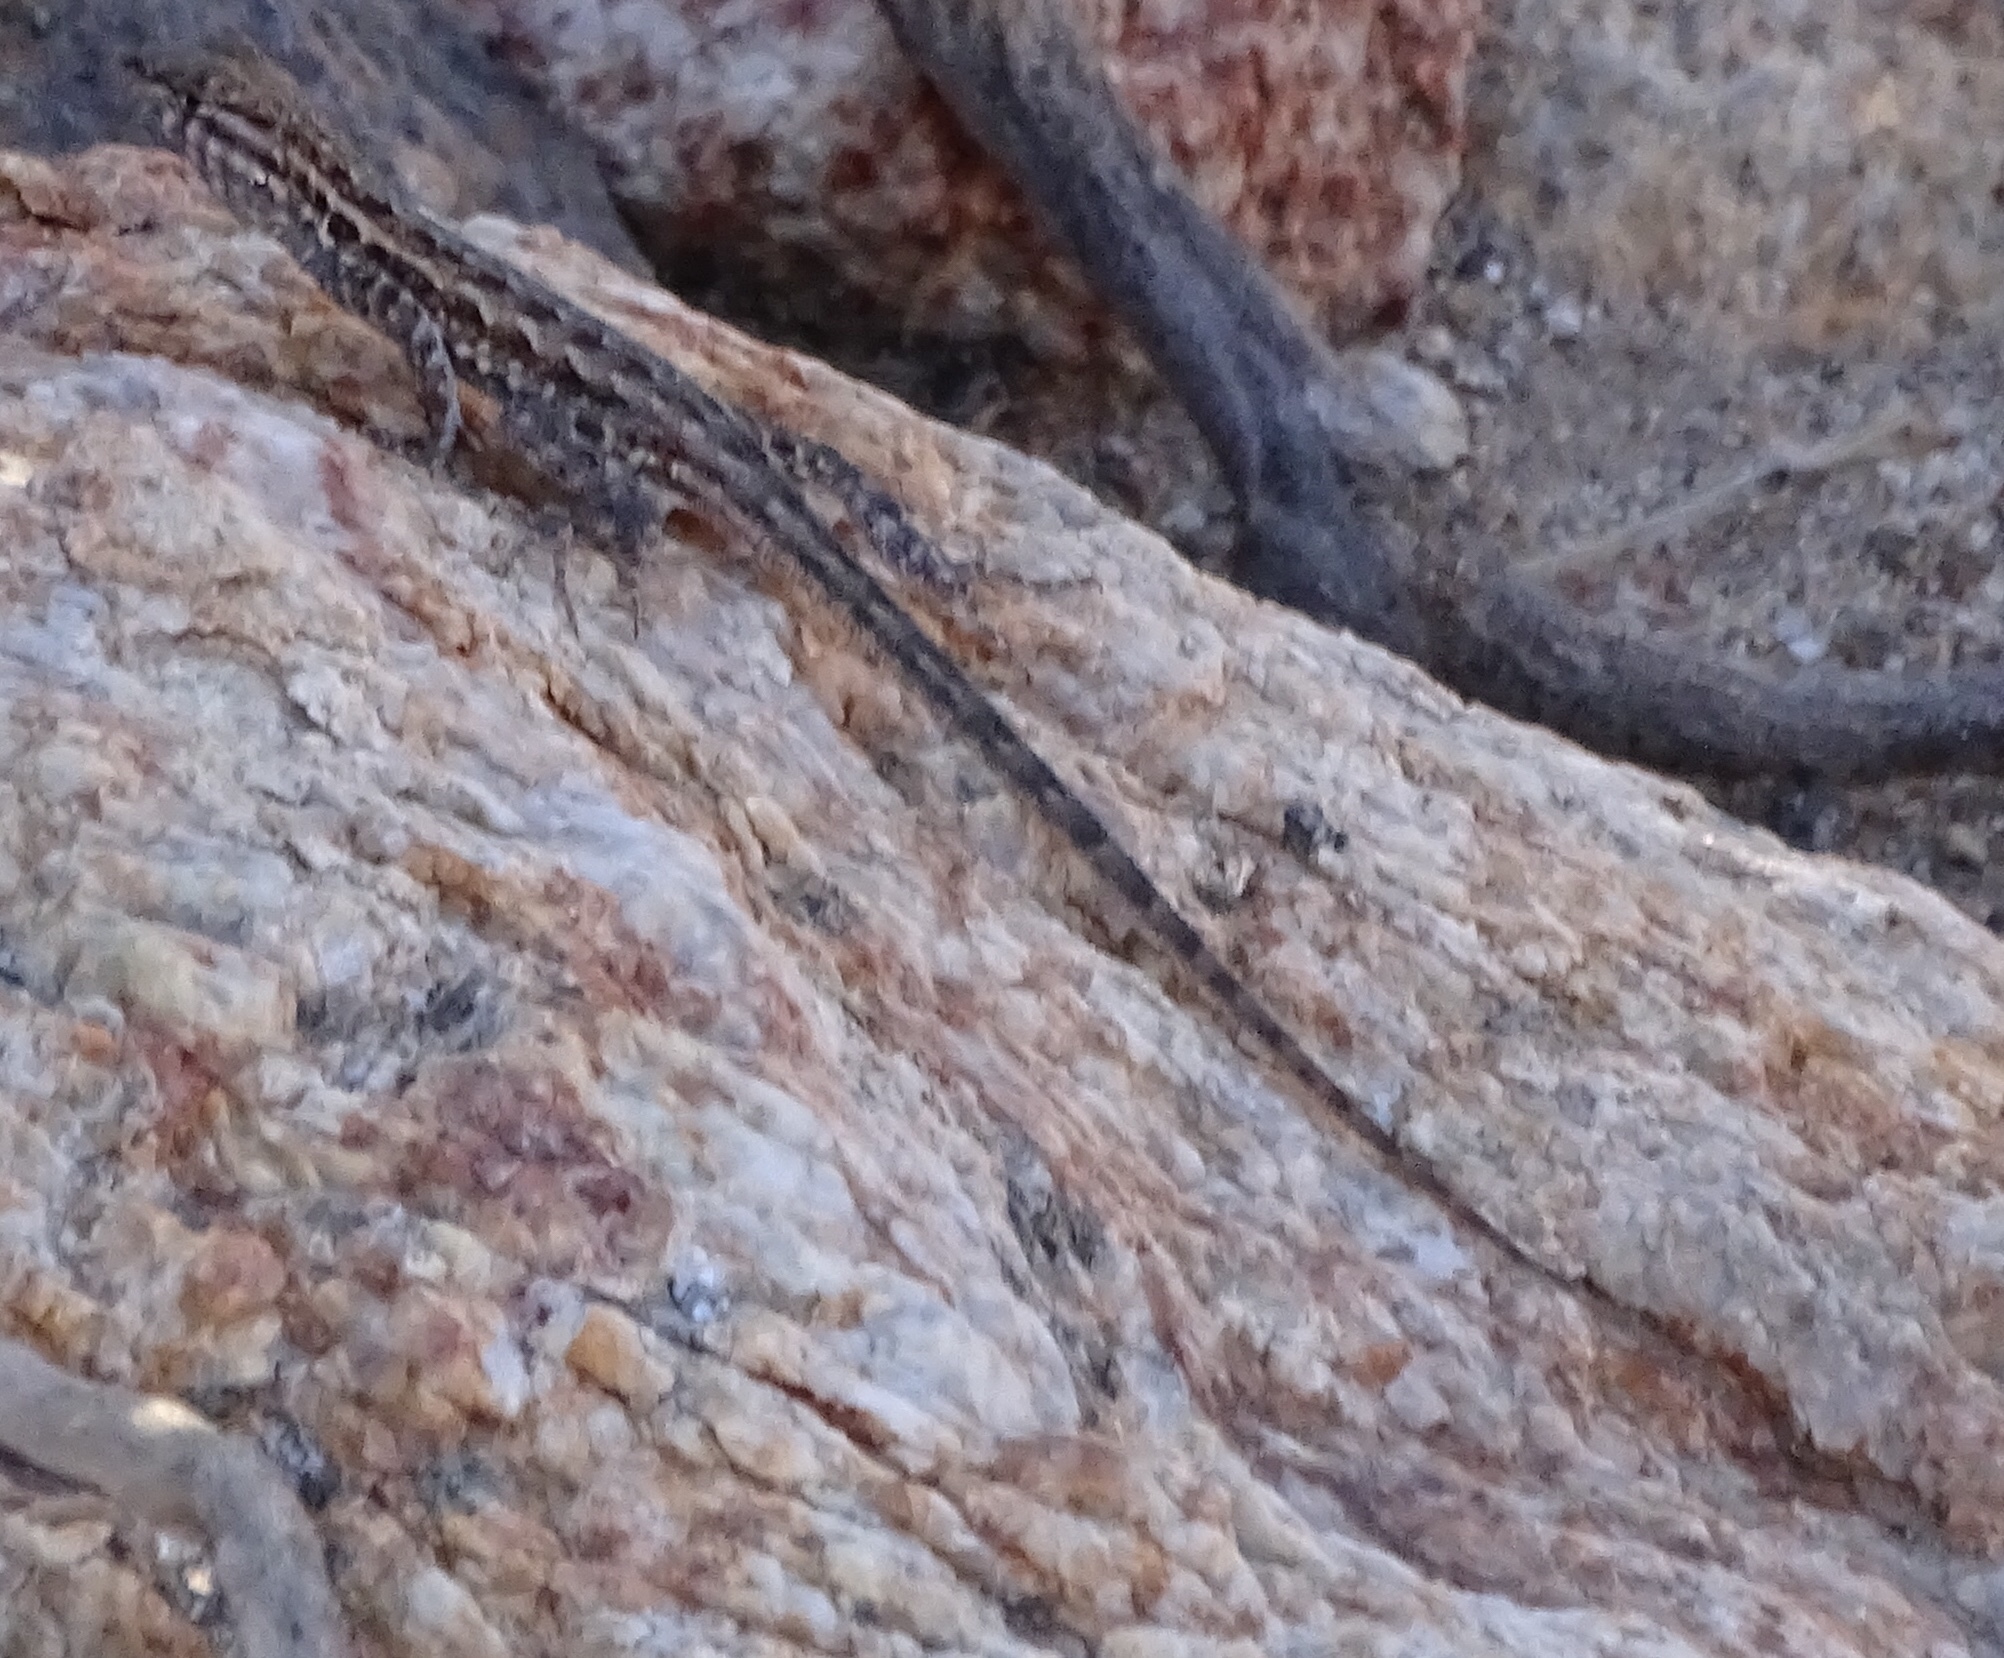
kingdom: Animalia
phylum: Chordata
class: Squamata
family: Phrynosomatidae
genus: Uta
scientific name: Uta stansburiana
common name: Side-blotched lizard
